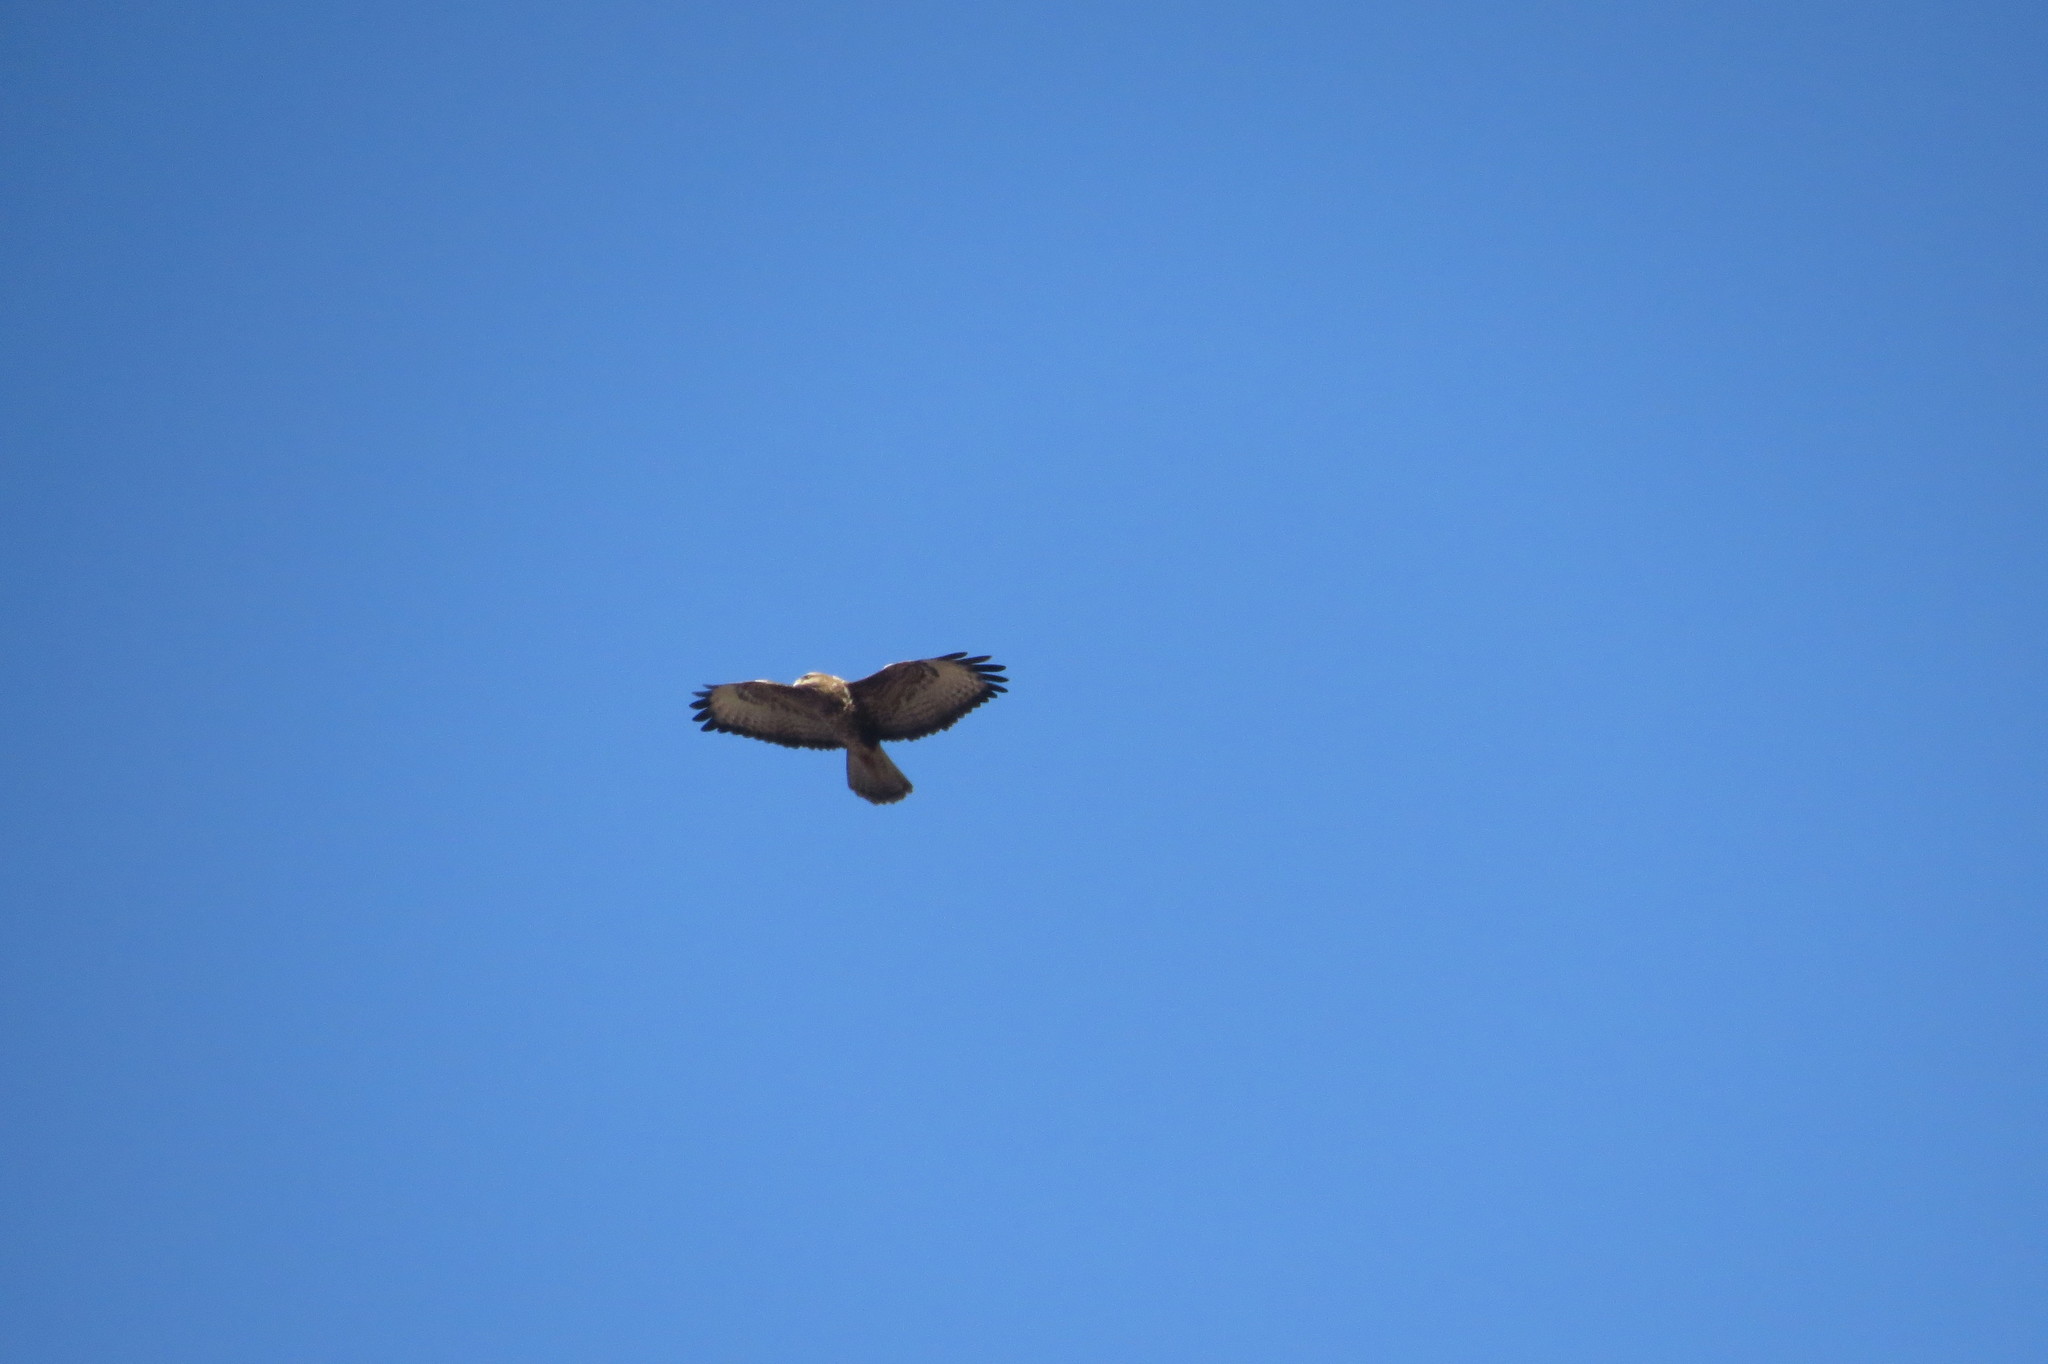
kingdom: Animalia
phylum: Chordata
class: Aves
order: Accipitriformes
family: Accipitridae
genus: Buteo
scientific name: Buteo buteo
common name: Common buzzard
